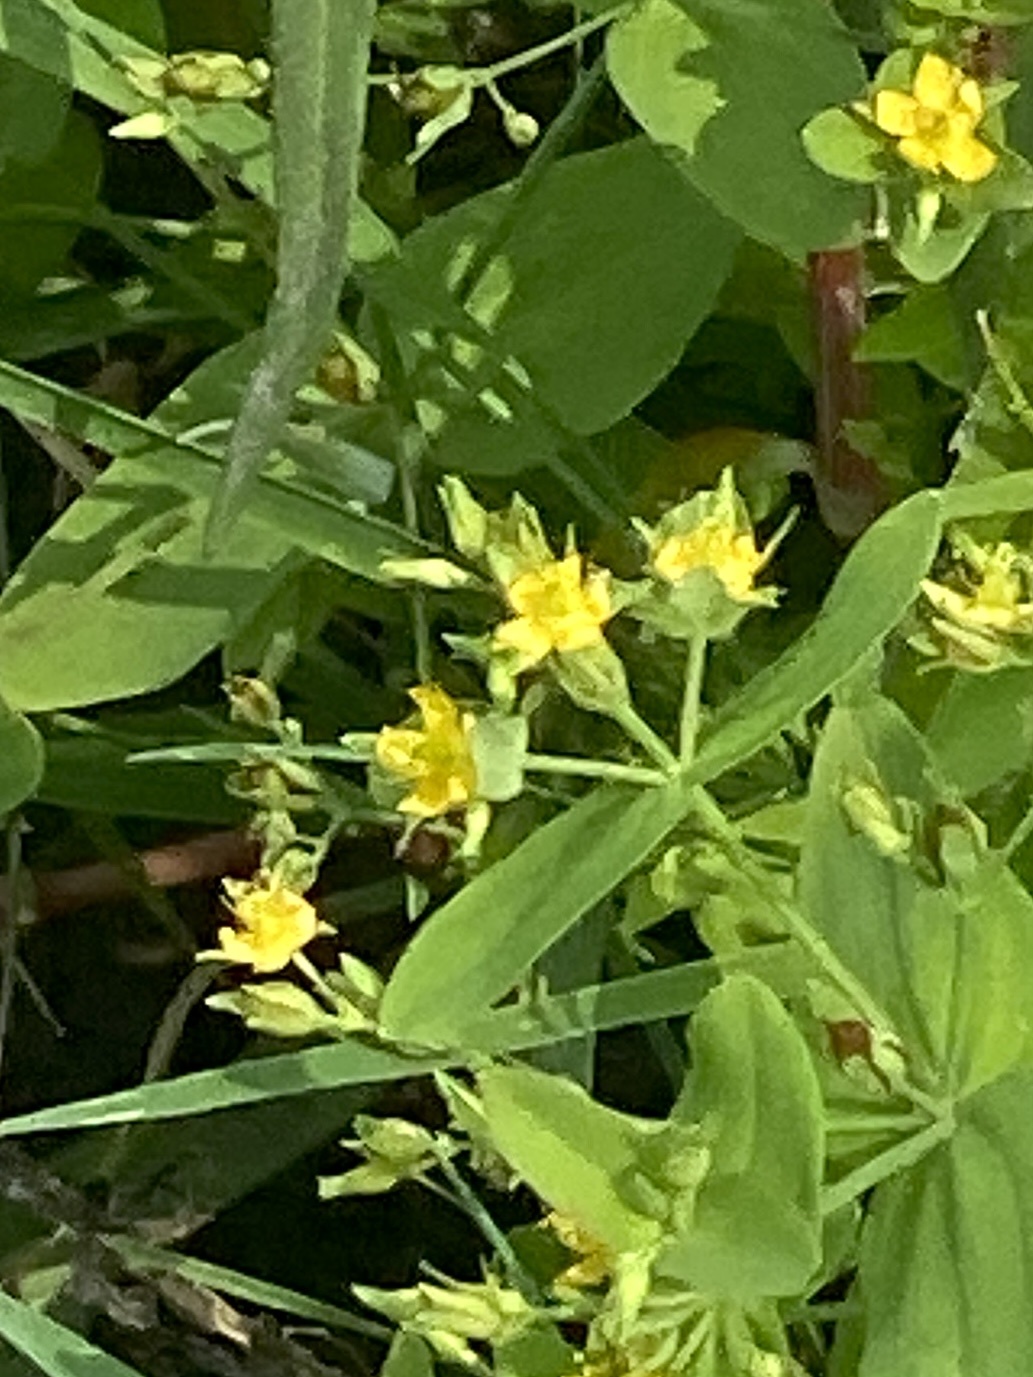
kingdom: Plantae
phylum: Tracheophyta
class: Magnoliopsida
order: Malpighiales
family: Hypericaceae
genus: Hypericum
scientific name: Hypericum mutilum
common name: Dwarf st. john's-wort
